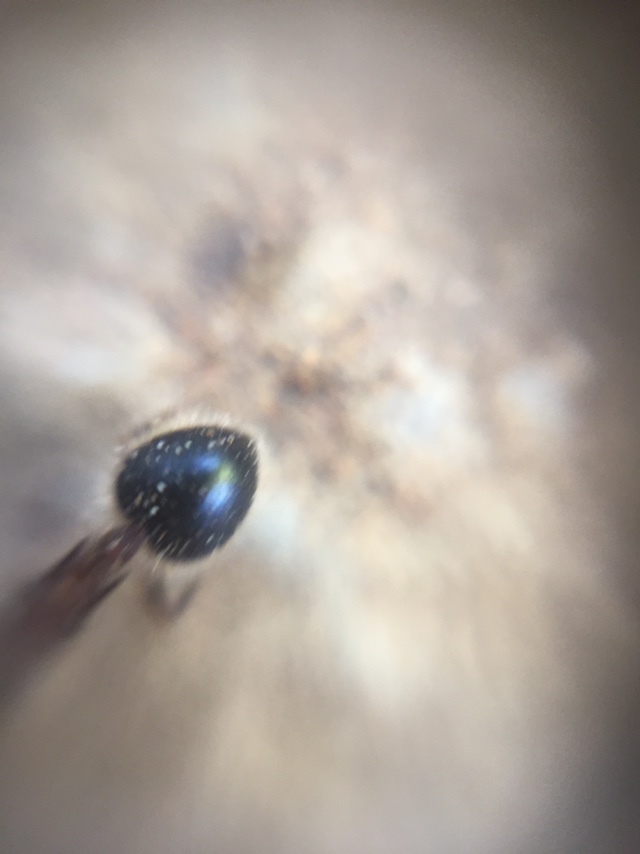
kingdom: Animalia
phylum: Arthropoda
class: Insecta
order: Hymenoptera
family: Formicidae
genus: Meranoplus
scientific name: Meranoplus bicolor
